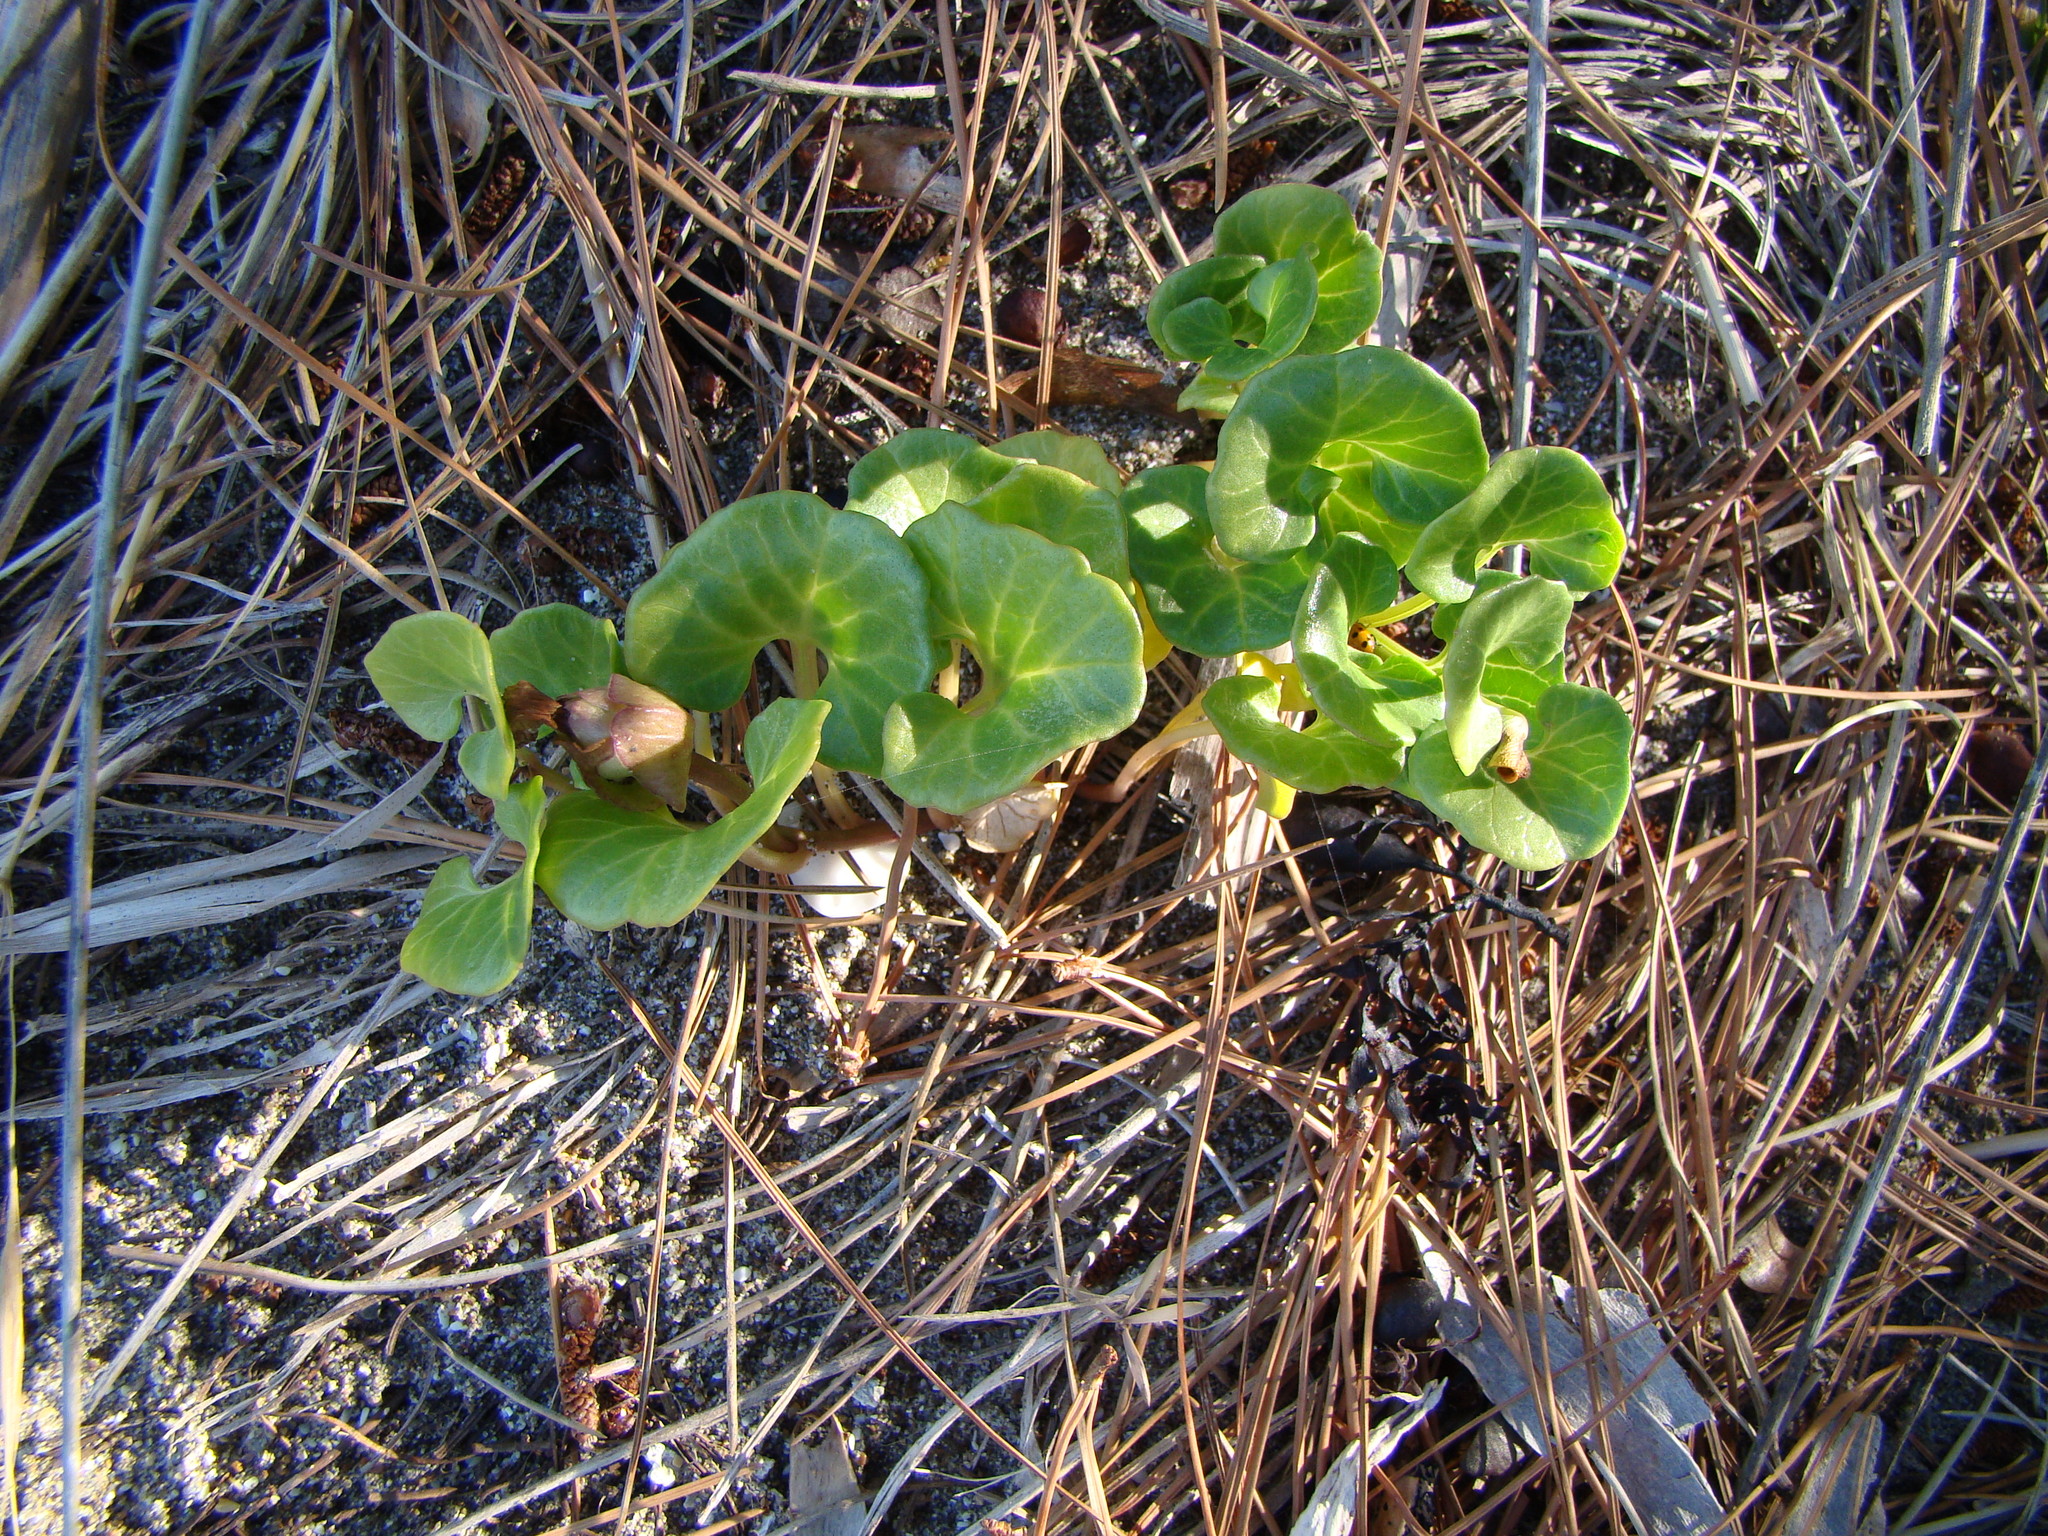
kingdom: Plantae
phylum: Tracheophyta
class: Magnoliopsida
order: Solanales
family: Convolvulaceae
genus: Calystegia
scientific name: Calystegia soldanella
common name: Sea bindweed
